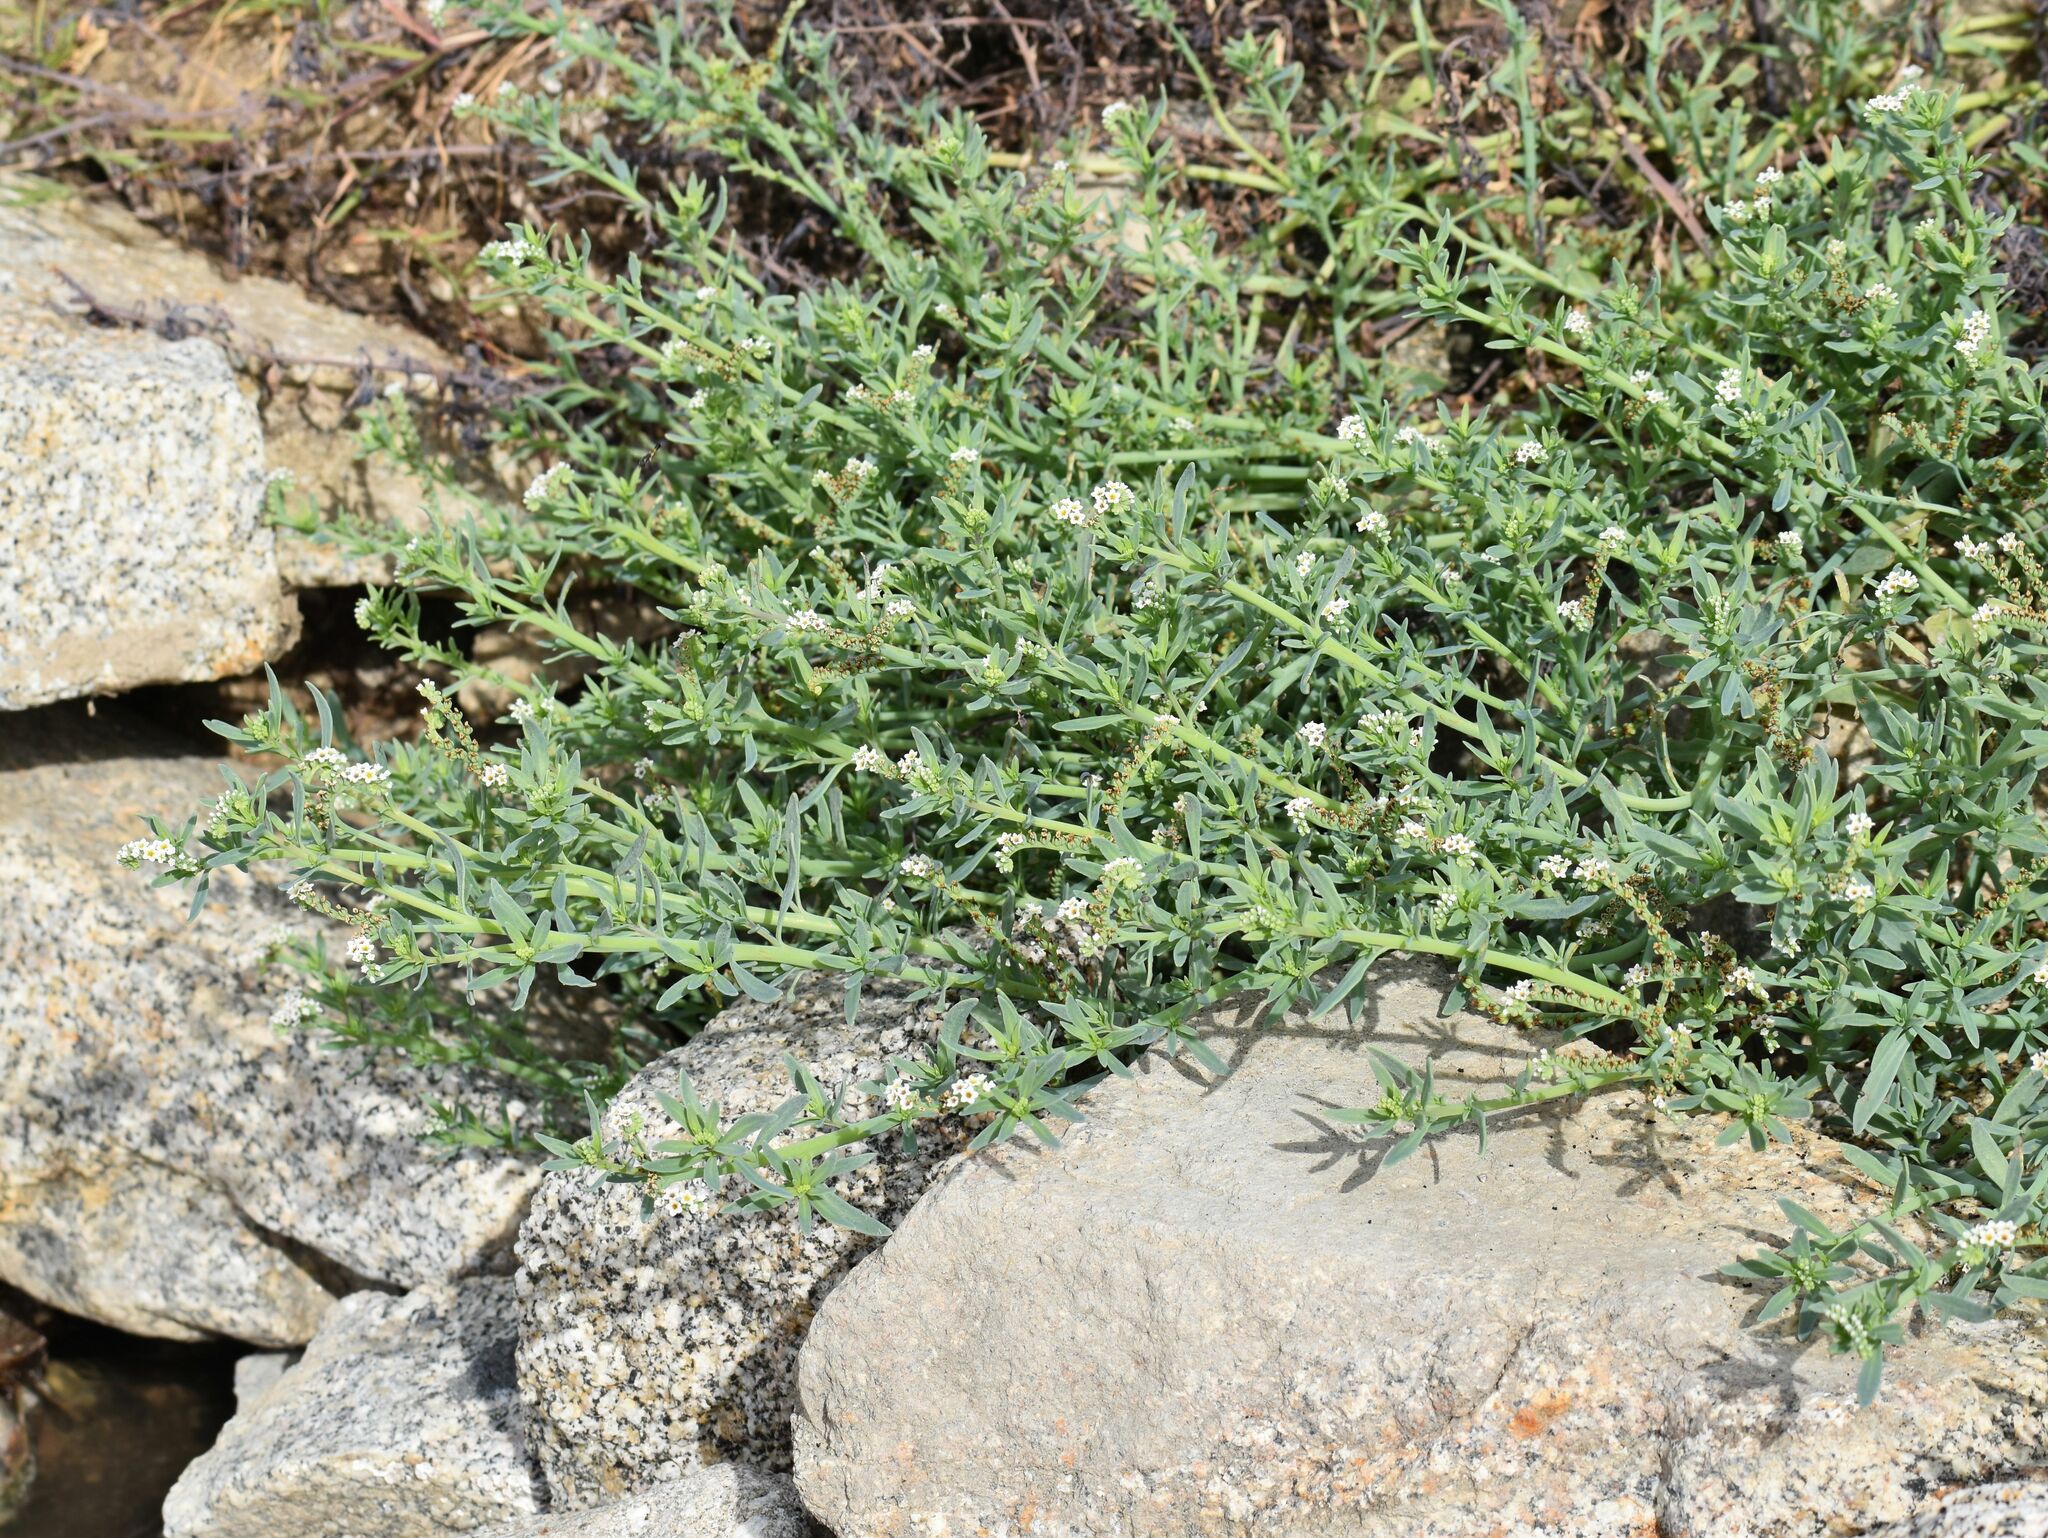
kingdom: Plantae
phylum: Tracheophyta
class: Magnoliopsida
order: Boraginales
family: Heliotropiaceae
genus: Heliotropium
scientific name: Heliotropium curassavicum
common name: Seaside heliotrope
